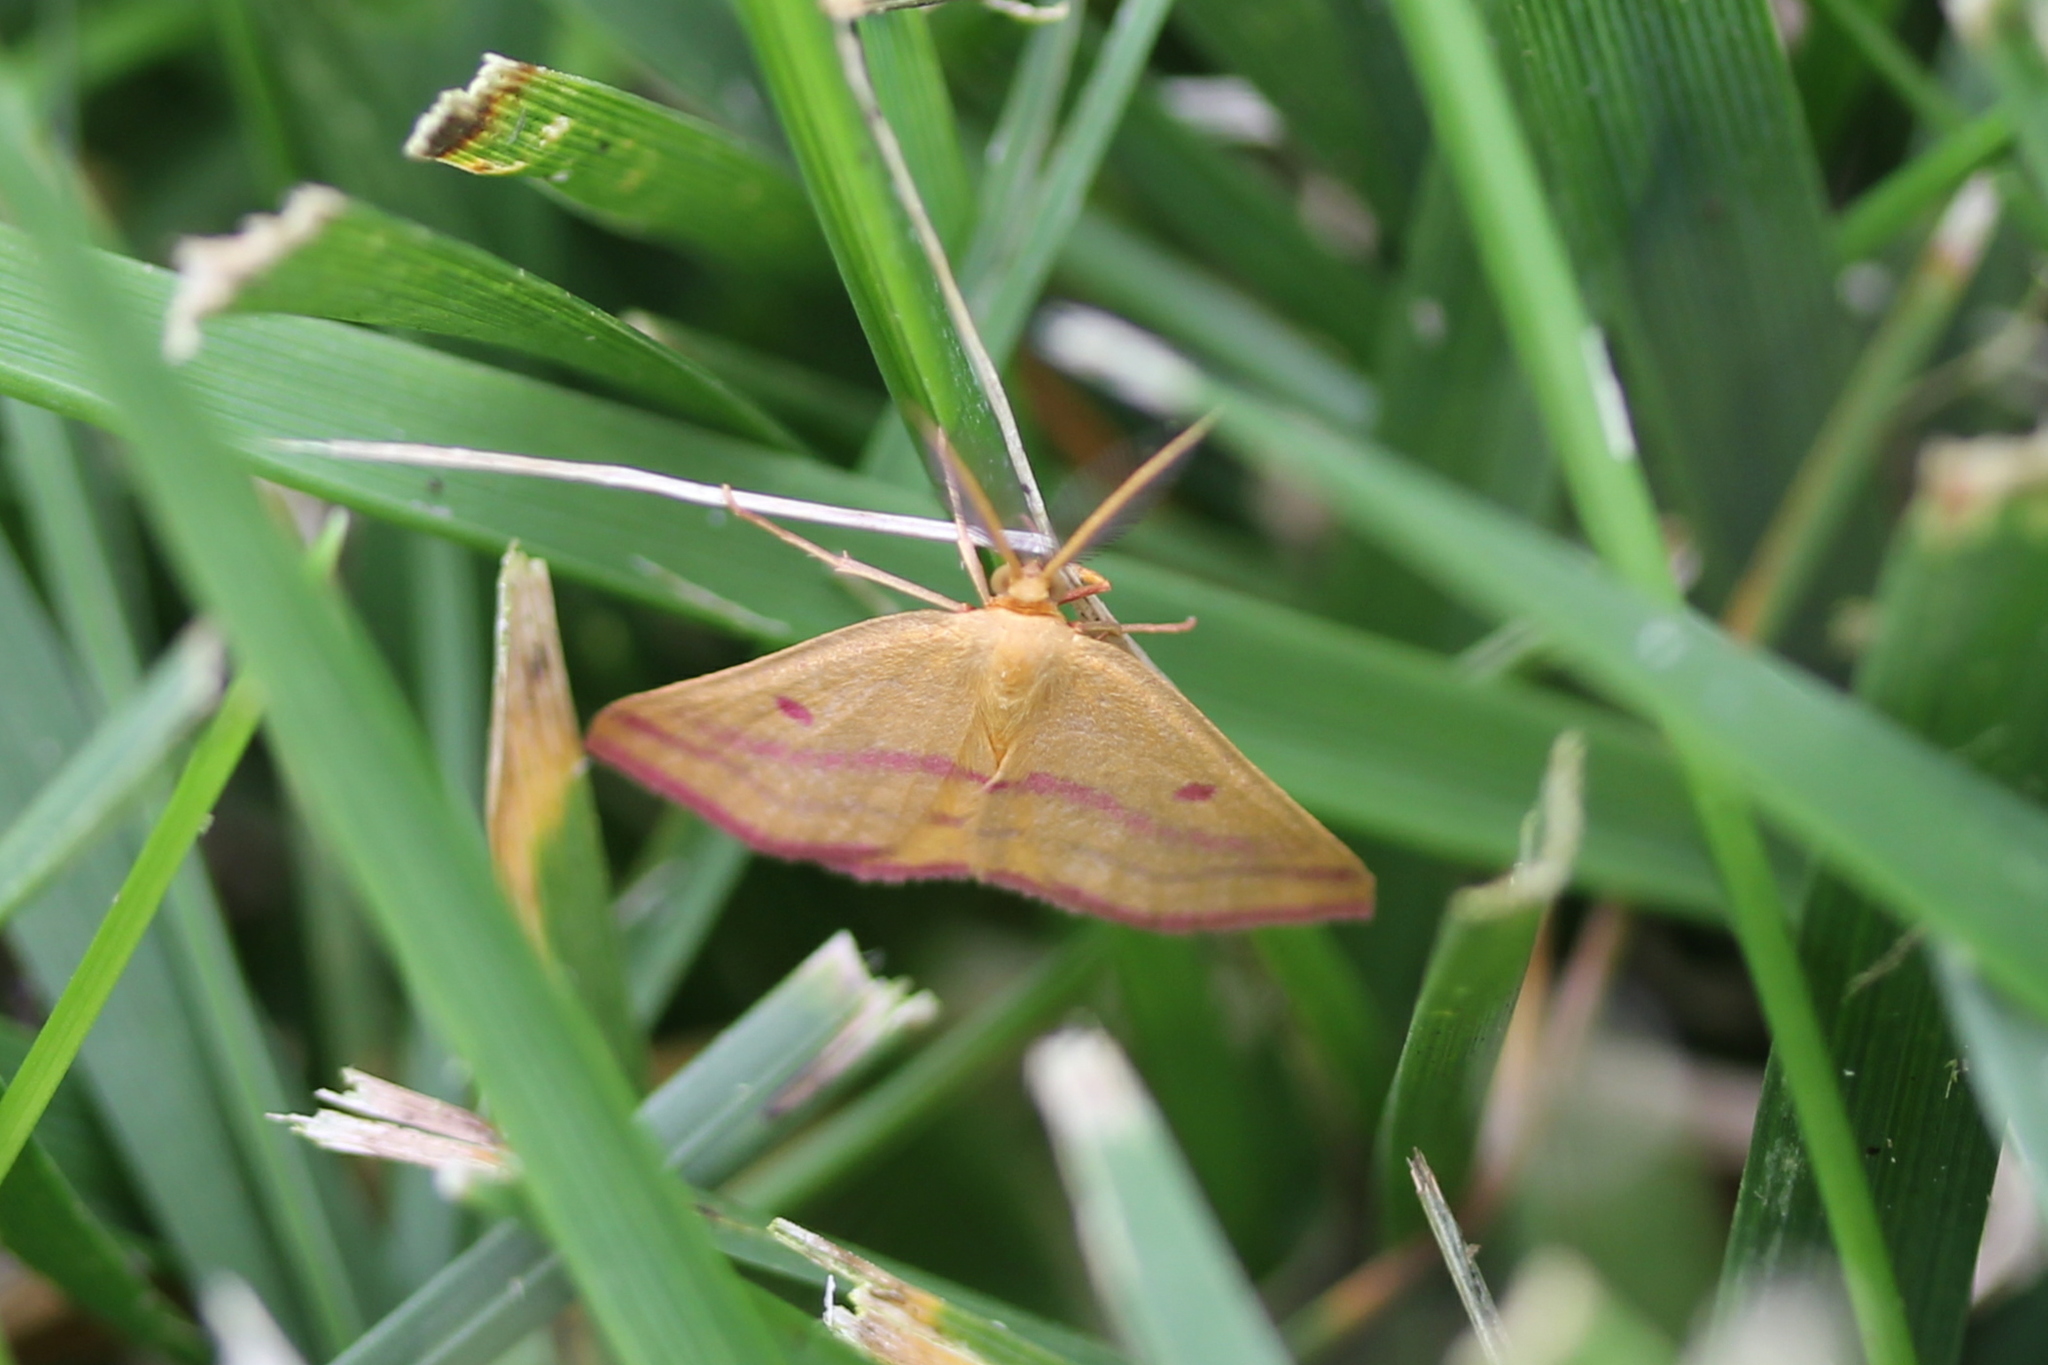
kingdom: Animalia
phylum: Arthropoda
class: Insecta
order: Lepidoptera
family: Geometridae
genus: Haematopis
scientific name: Haematopis grataria
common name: Chickweed geometer
